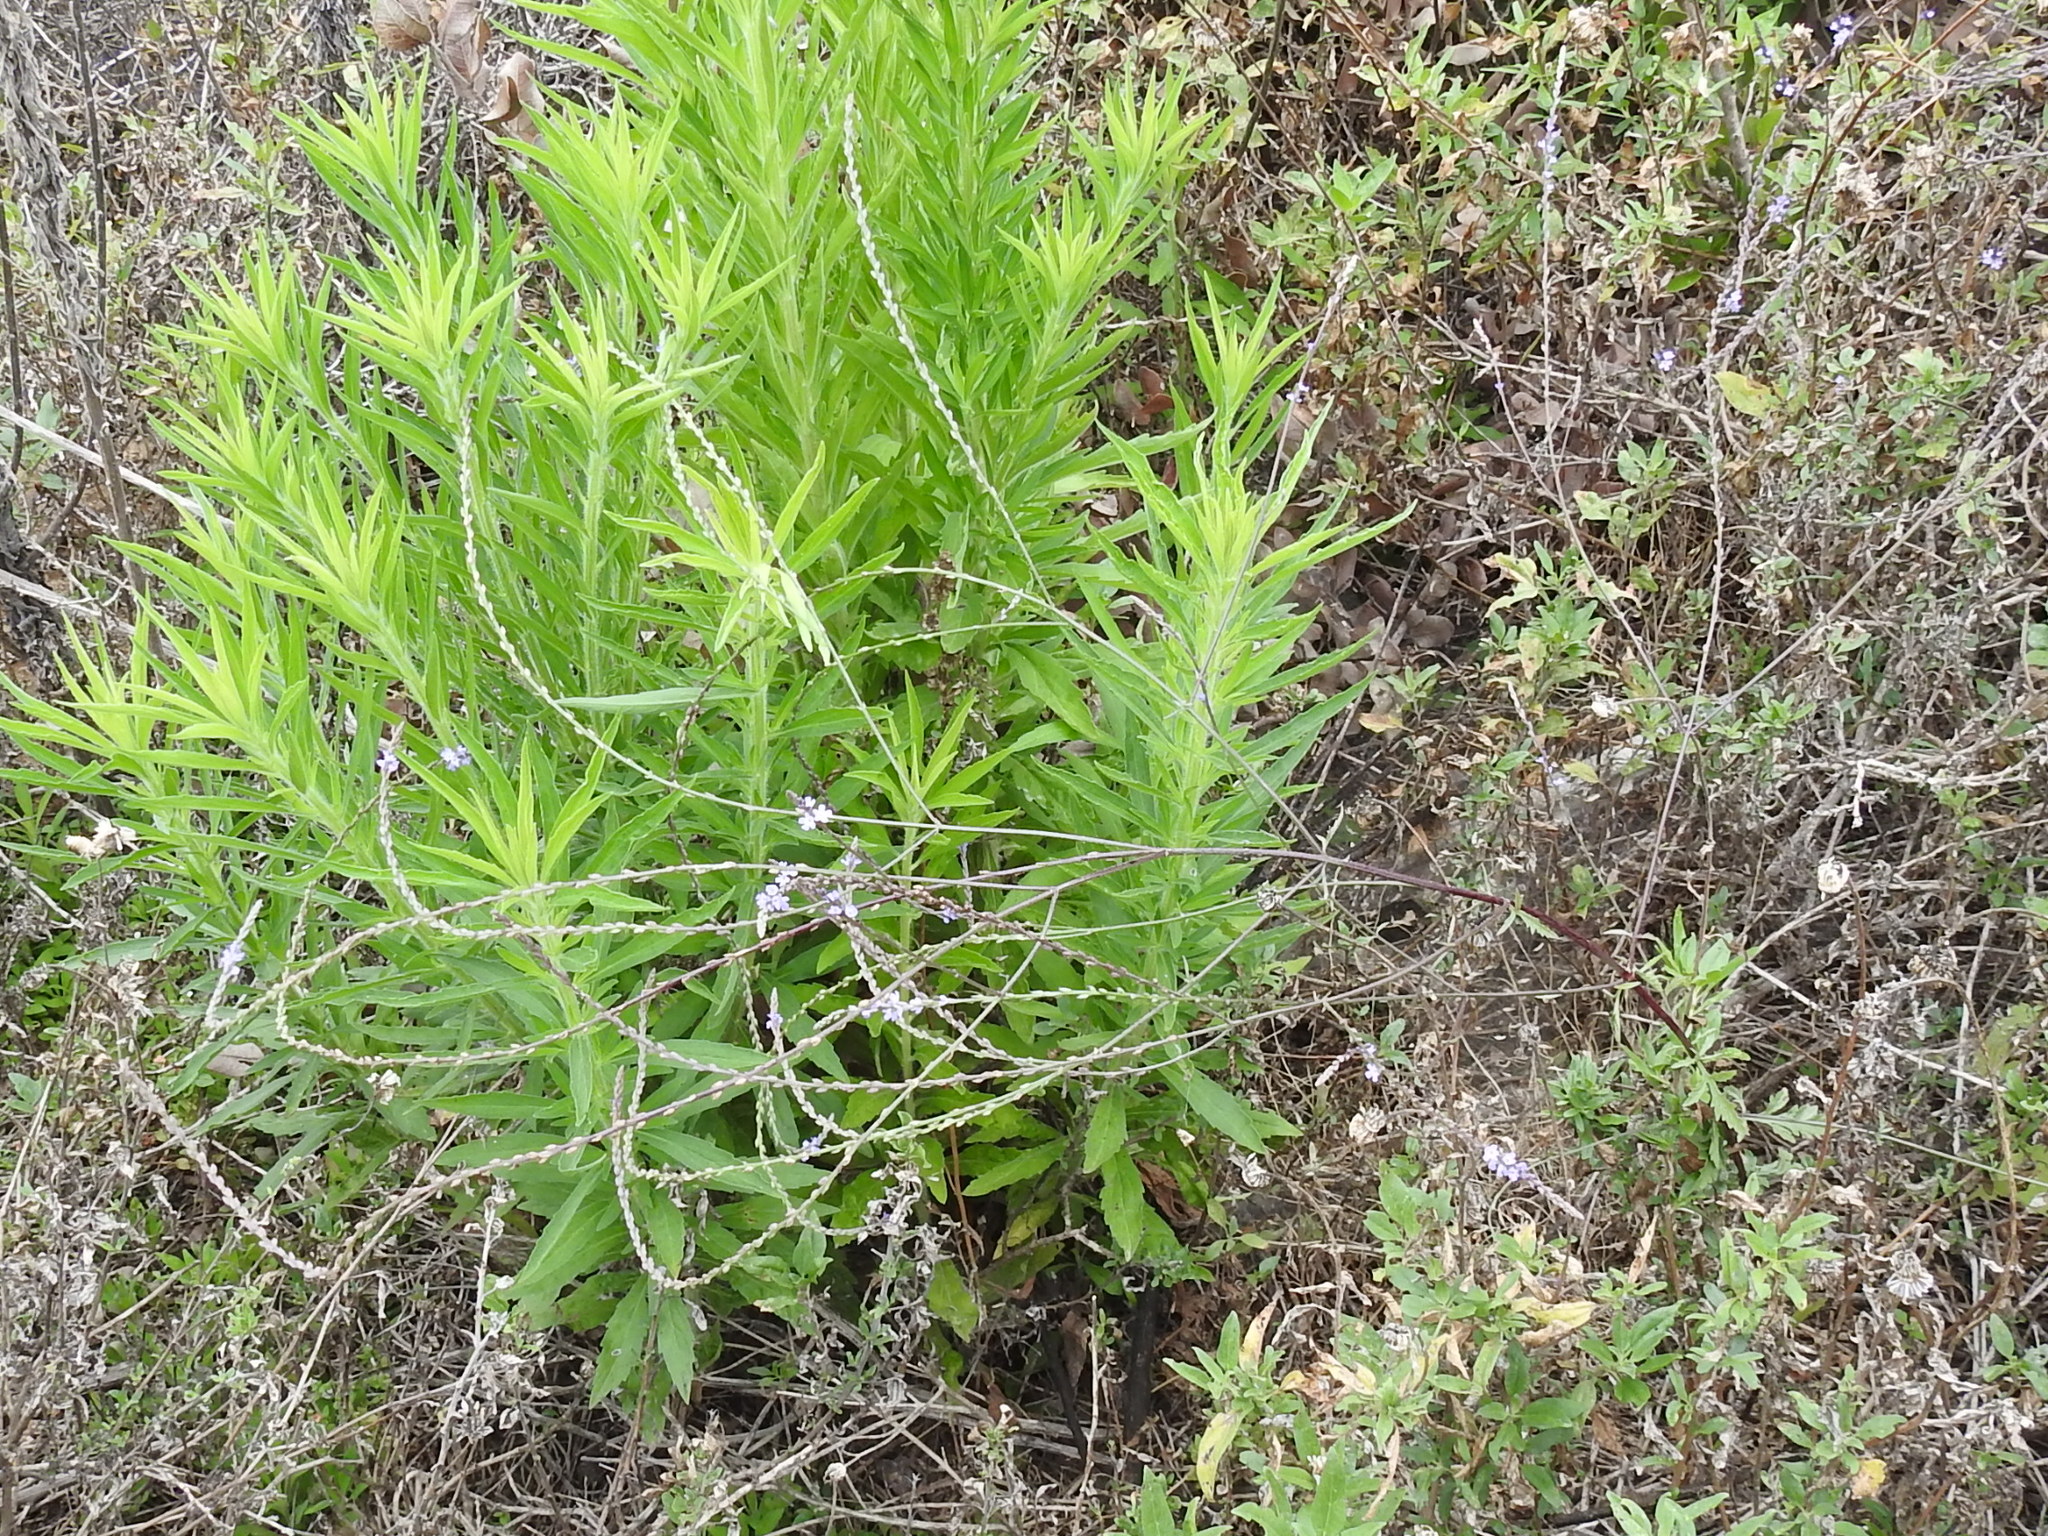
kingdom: Plantae
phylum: Tracheophyta
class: Magnoliopsida
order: Lamiales
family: Verbenaceae
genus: Verbena
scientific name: Verbena menthifolia
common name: Mint-leaf vervain
